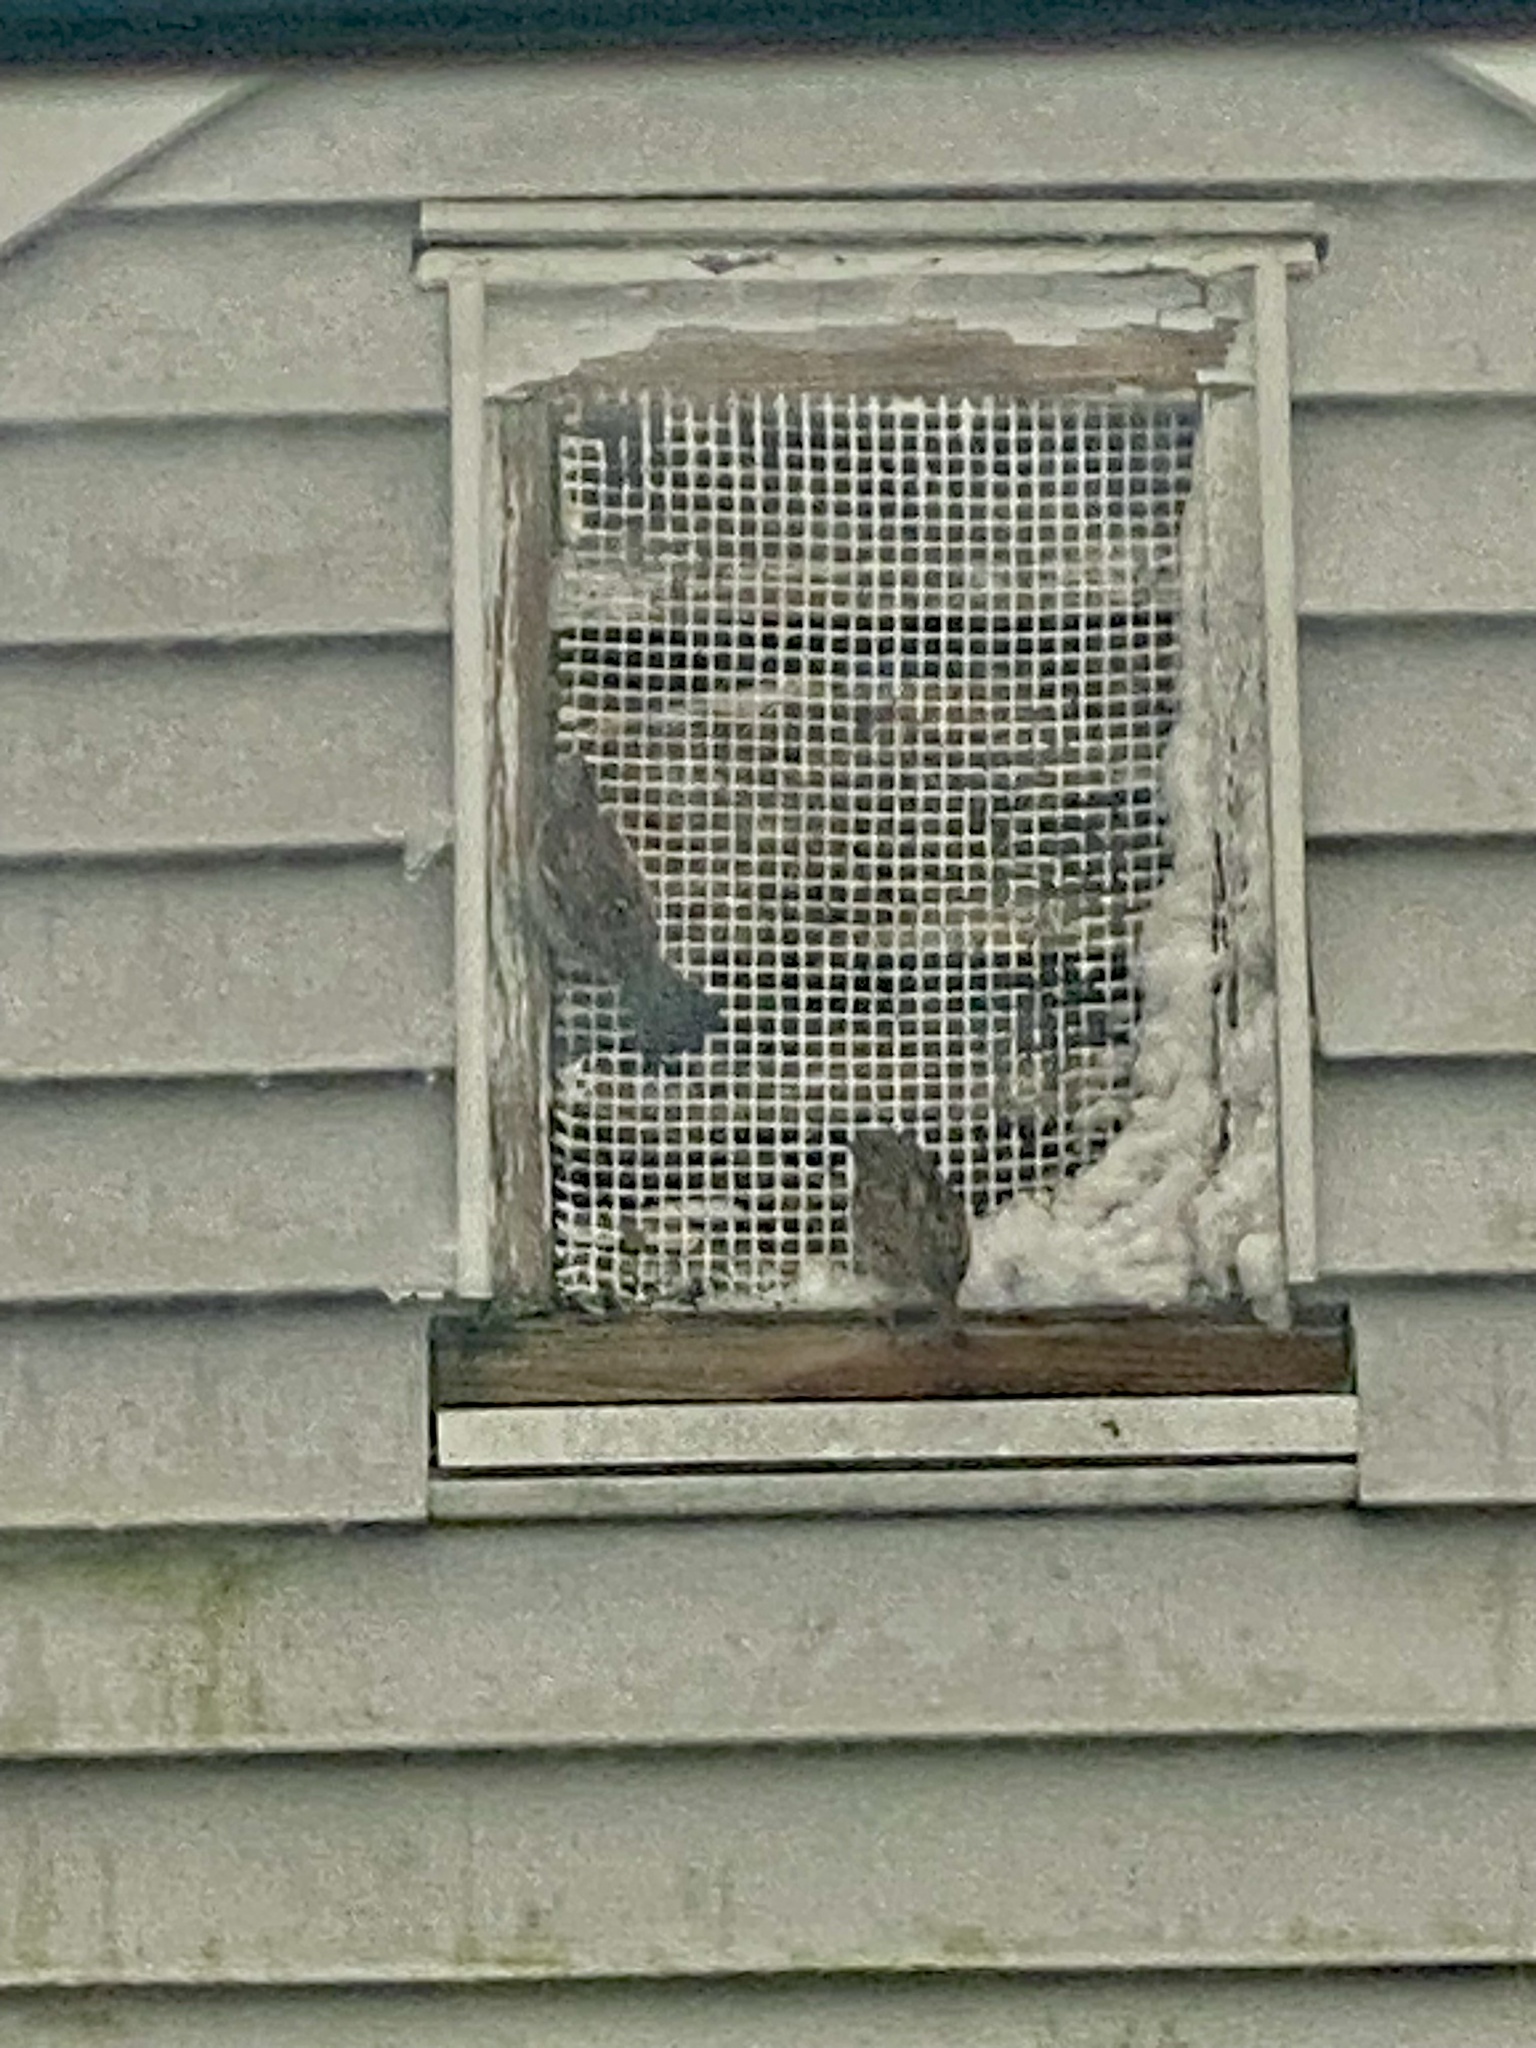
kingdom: Animalia
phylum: Chordata
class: Aves
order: Passeriformes
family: Passeridae
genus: Passer
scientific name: Passer domesticus
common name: House sparrow
